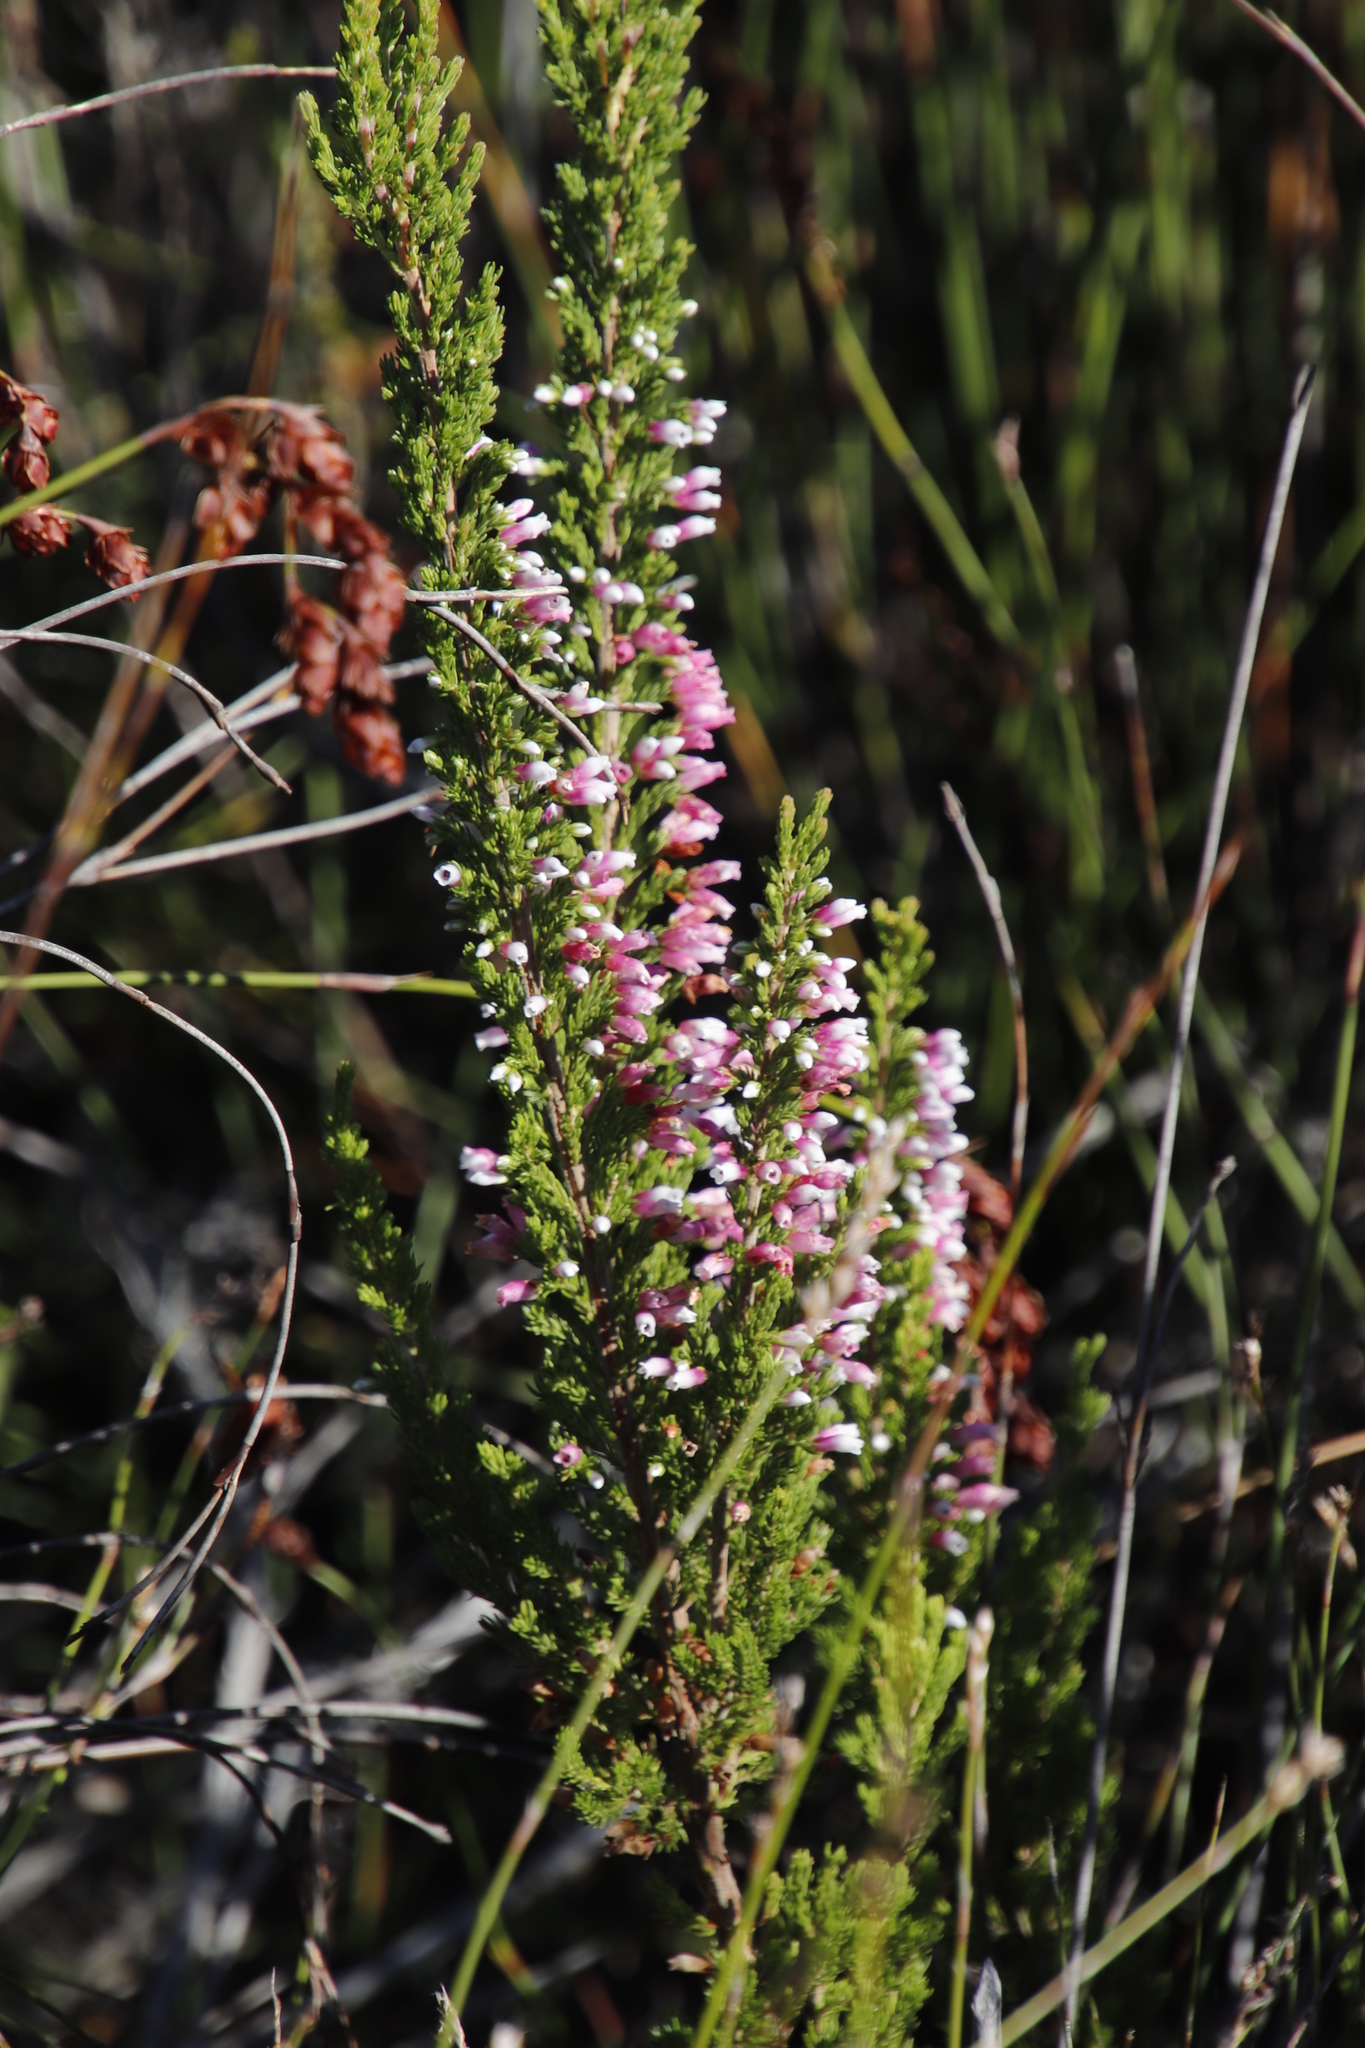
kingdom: Plantae
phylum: Tracheophyta
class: Magnoliopsida
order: Ericales
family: Ericaceae
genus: Erica
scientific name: Erica sitiens
